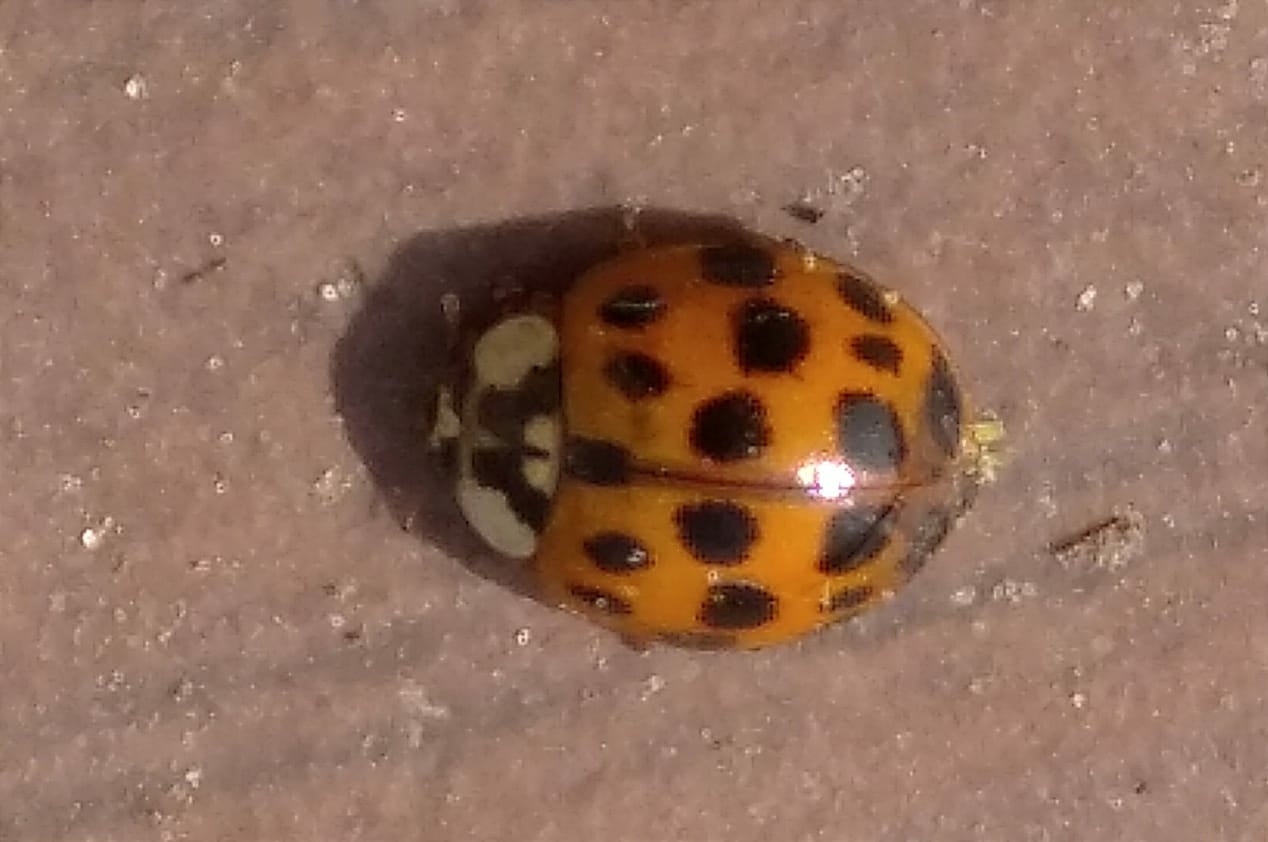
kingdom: Animalia
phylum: Arthropoda
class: Insecta
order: Coleoptera
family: Coccinellidae
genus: Harmonia
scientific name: Harmonia axyridis
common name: Harlequin ladybird
